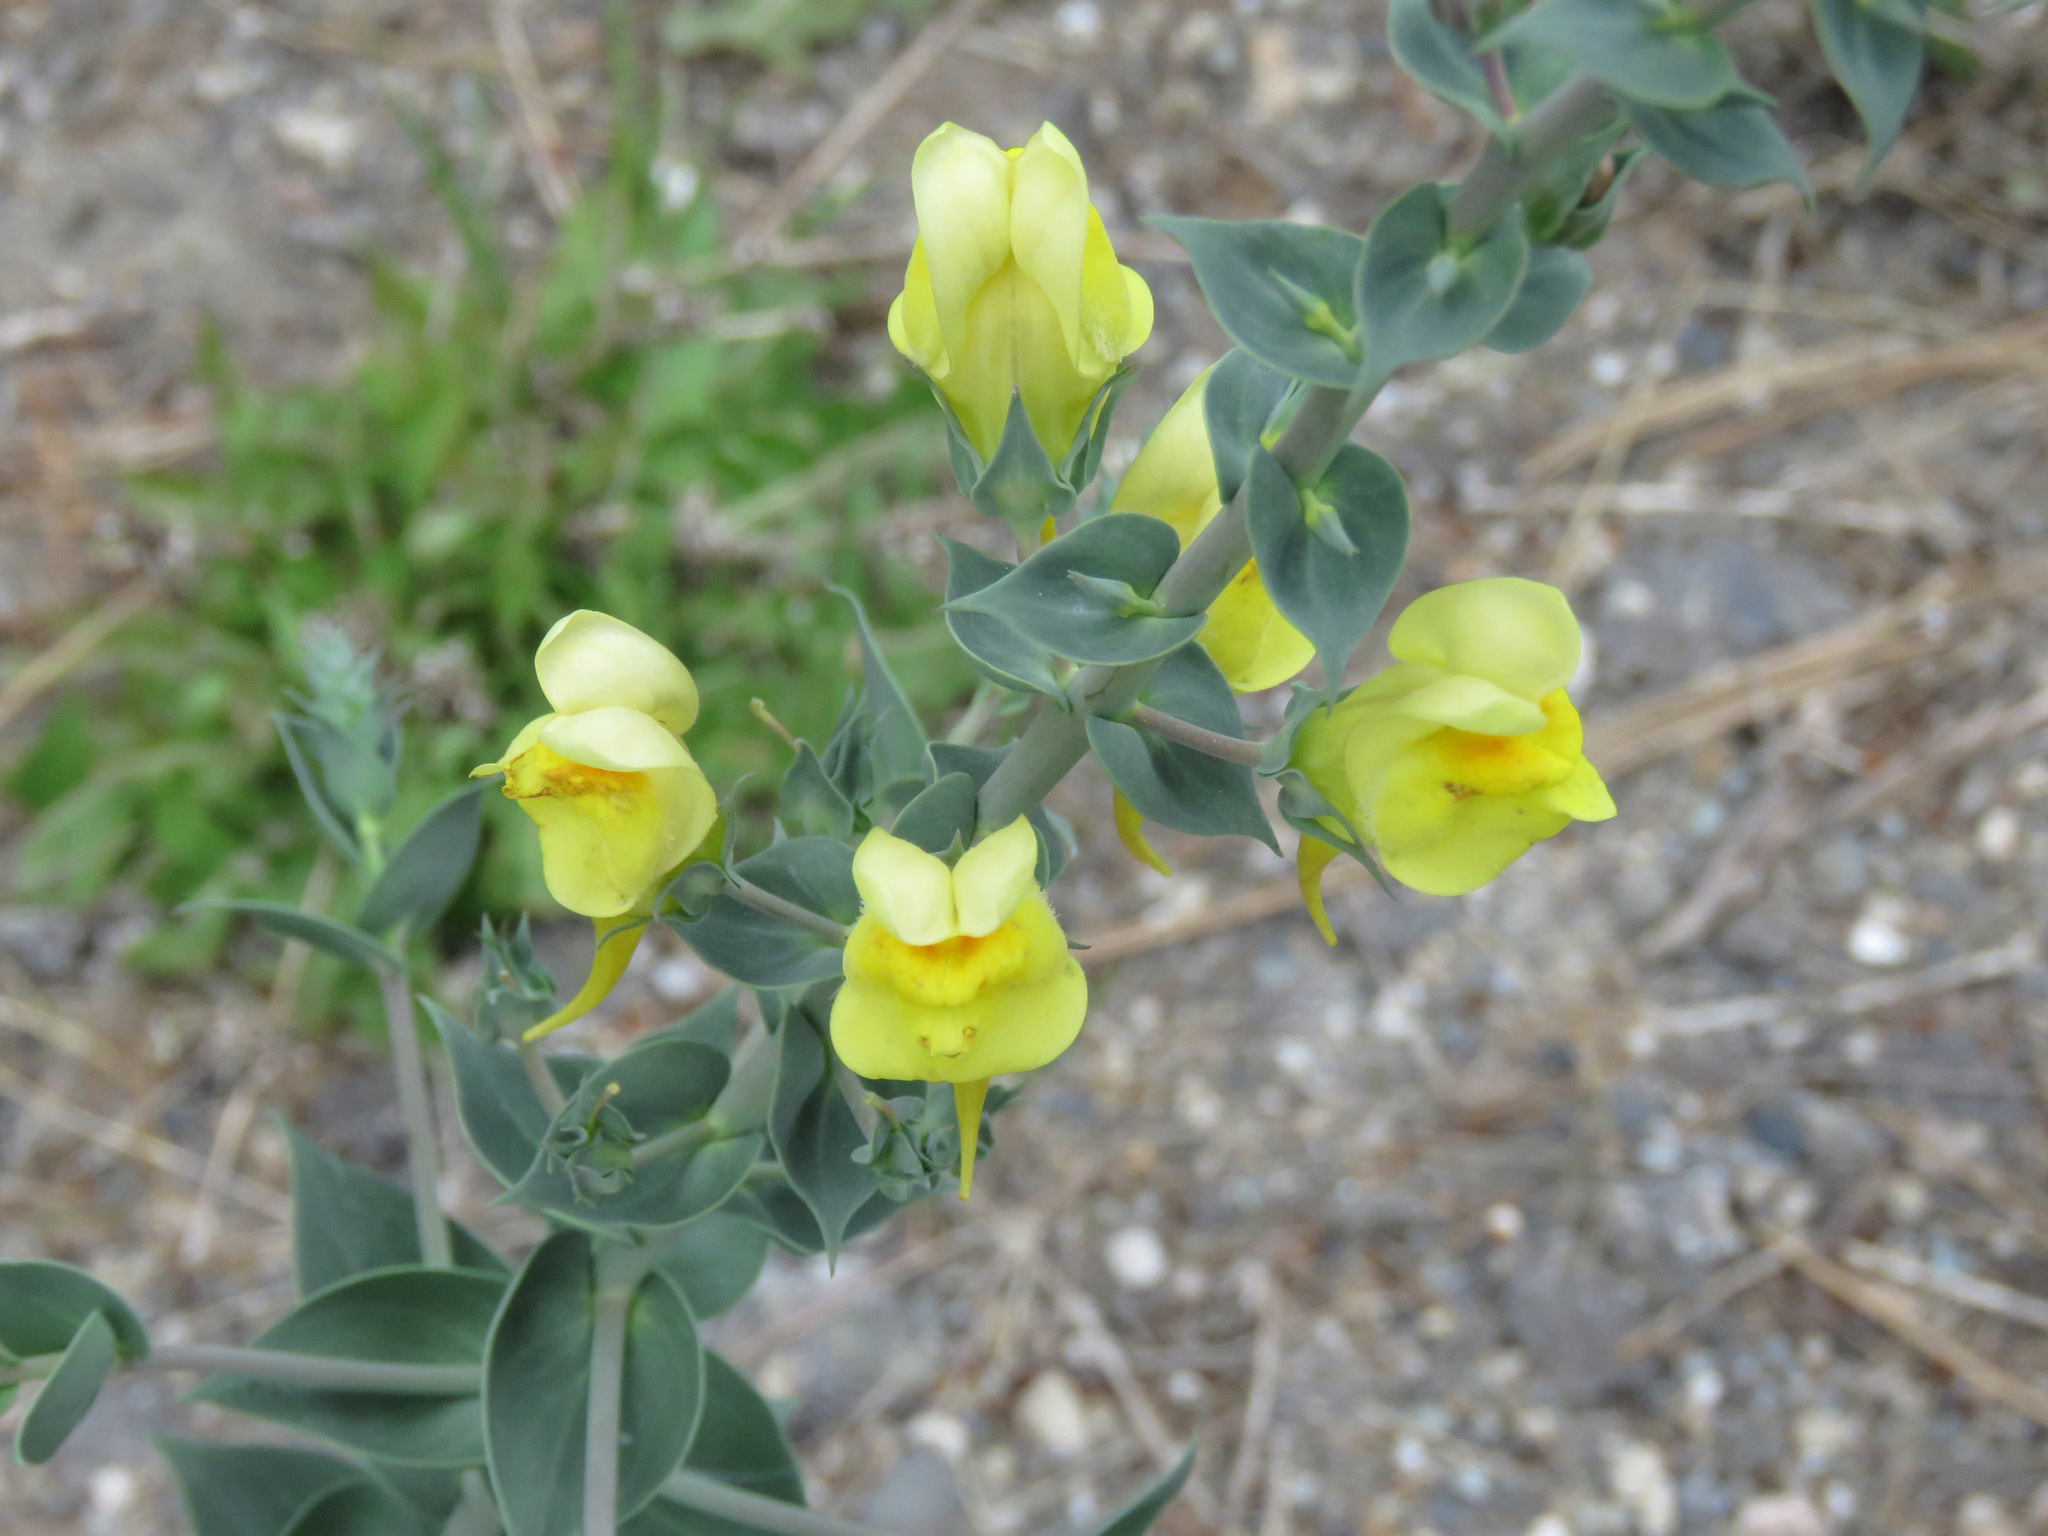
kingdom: Plantae
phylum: Tracheophyta
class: Magnoliopsida
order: Lamiales
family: Plantaginaceae
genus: Linaria
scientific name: Linaria dalmatica
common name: Dalmatian toadflax
